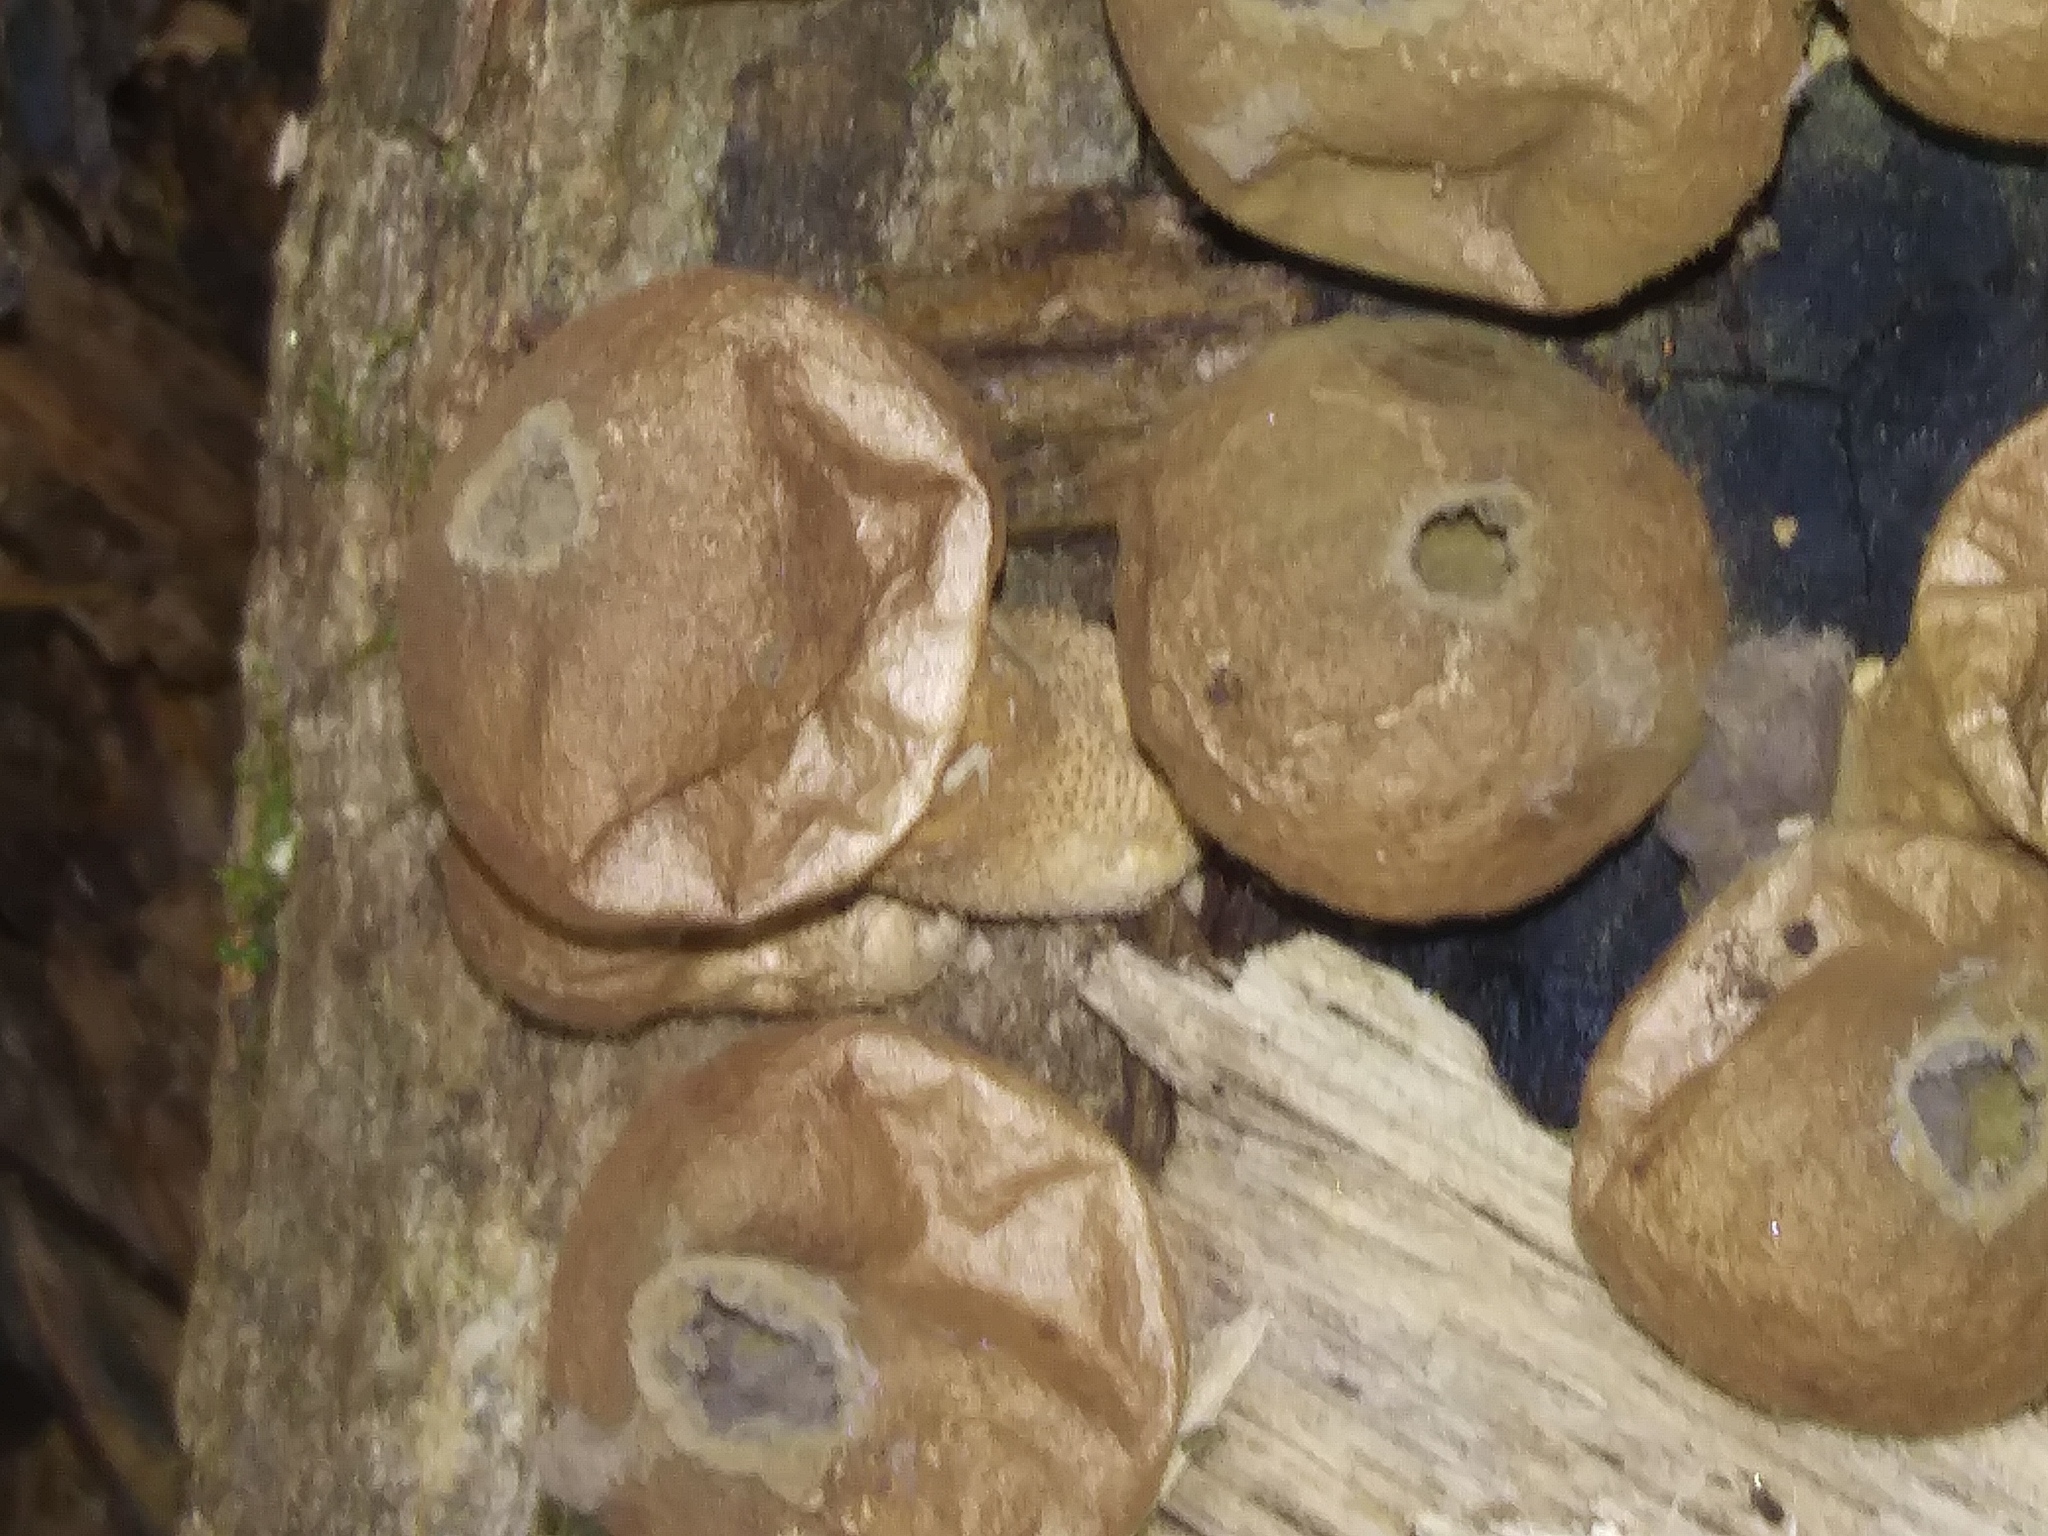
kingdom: Fungi
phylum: Basidiomycota
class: Agaricomycetes
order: Agaricales
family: Lycoperdaceae
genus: Apioperdon
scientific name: Apioperdon pyriforme
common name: Pear-shaped puffball
